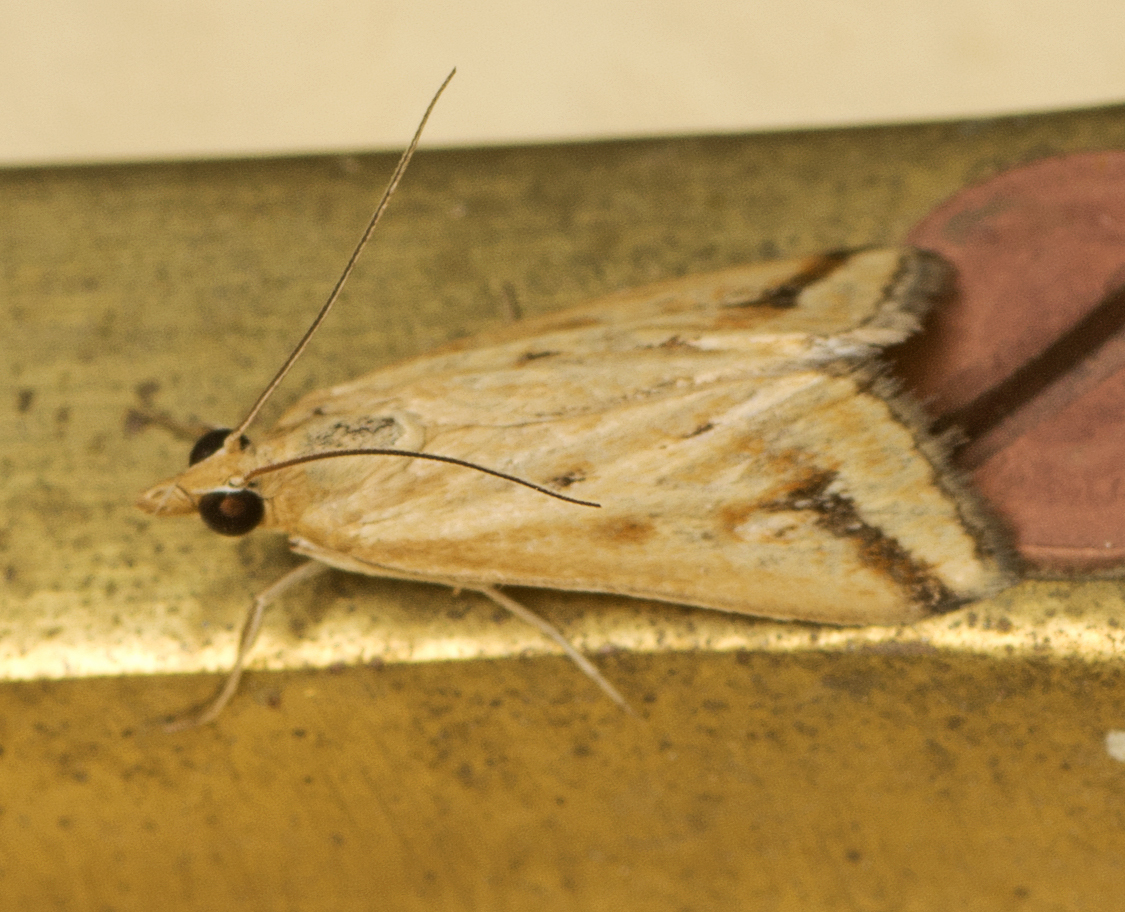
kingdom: Animalia
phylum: Arthropoda
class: Insecta
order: Lepidoptera
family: Crambidae
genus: Achyra
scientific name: Achyra massalis
